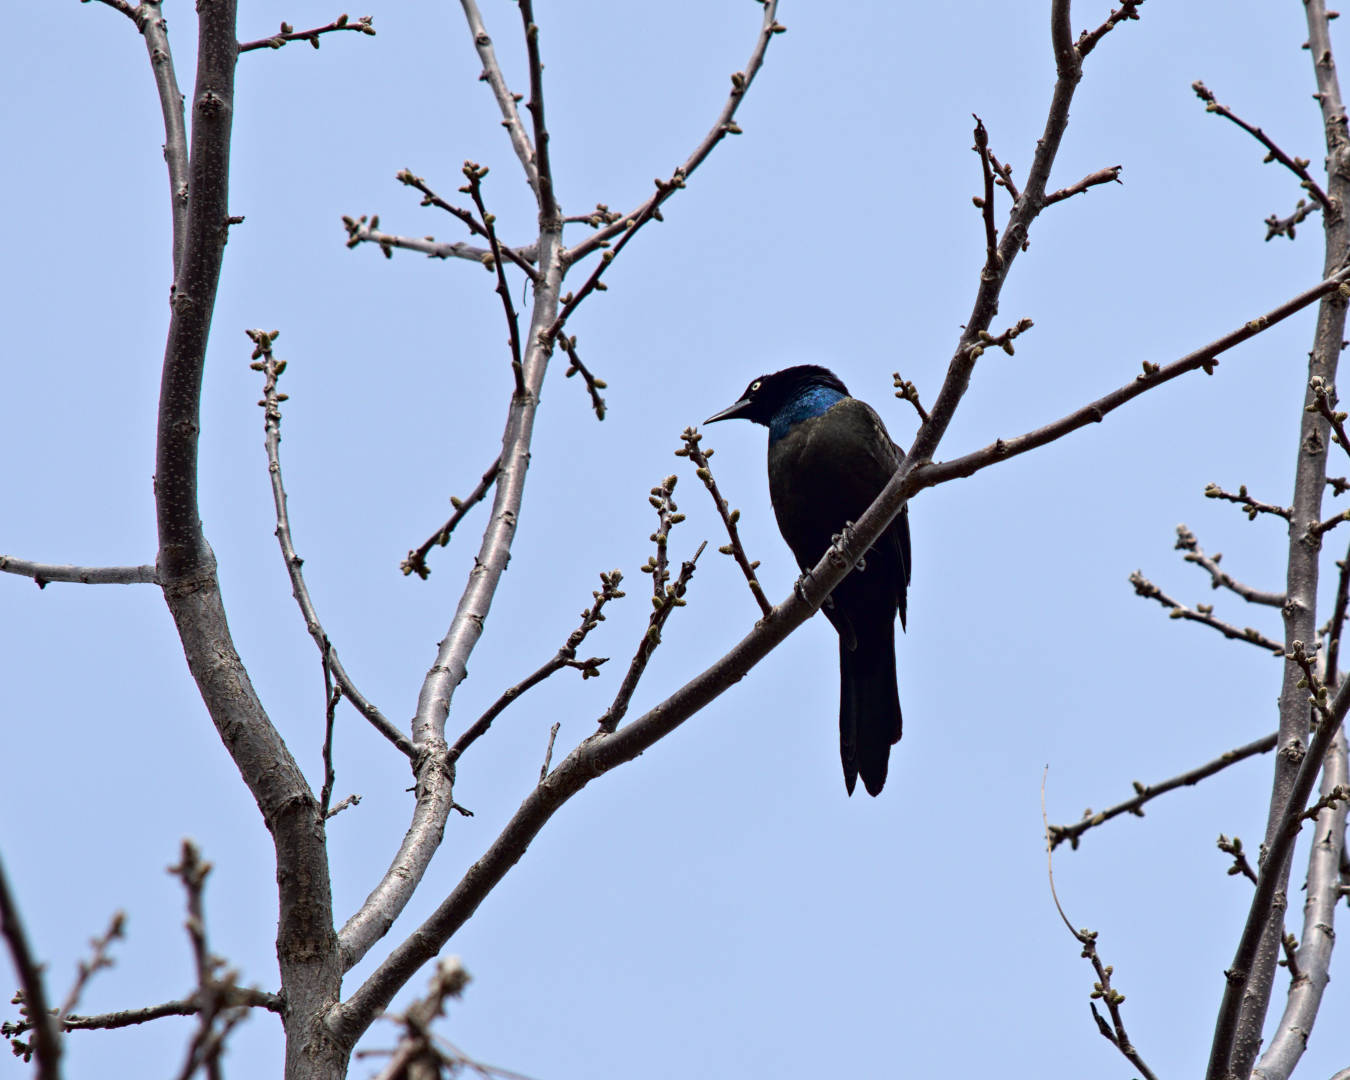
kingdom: Animalia
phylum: Chordata
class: Aves
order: Passeriformes
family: Icteridae
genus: Quiscalus
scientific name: Quiscalus quiscula
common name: Common grackle
